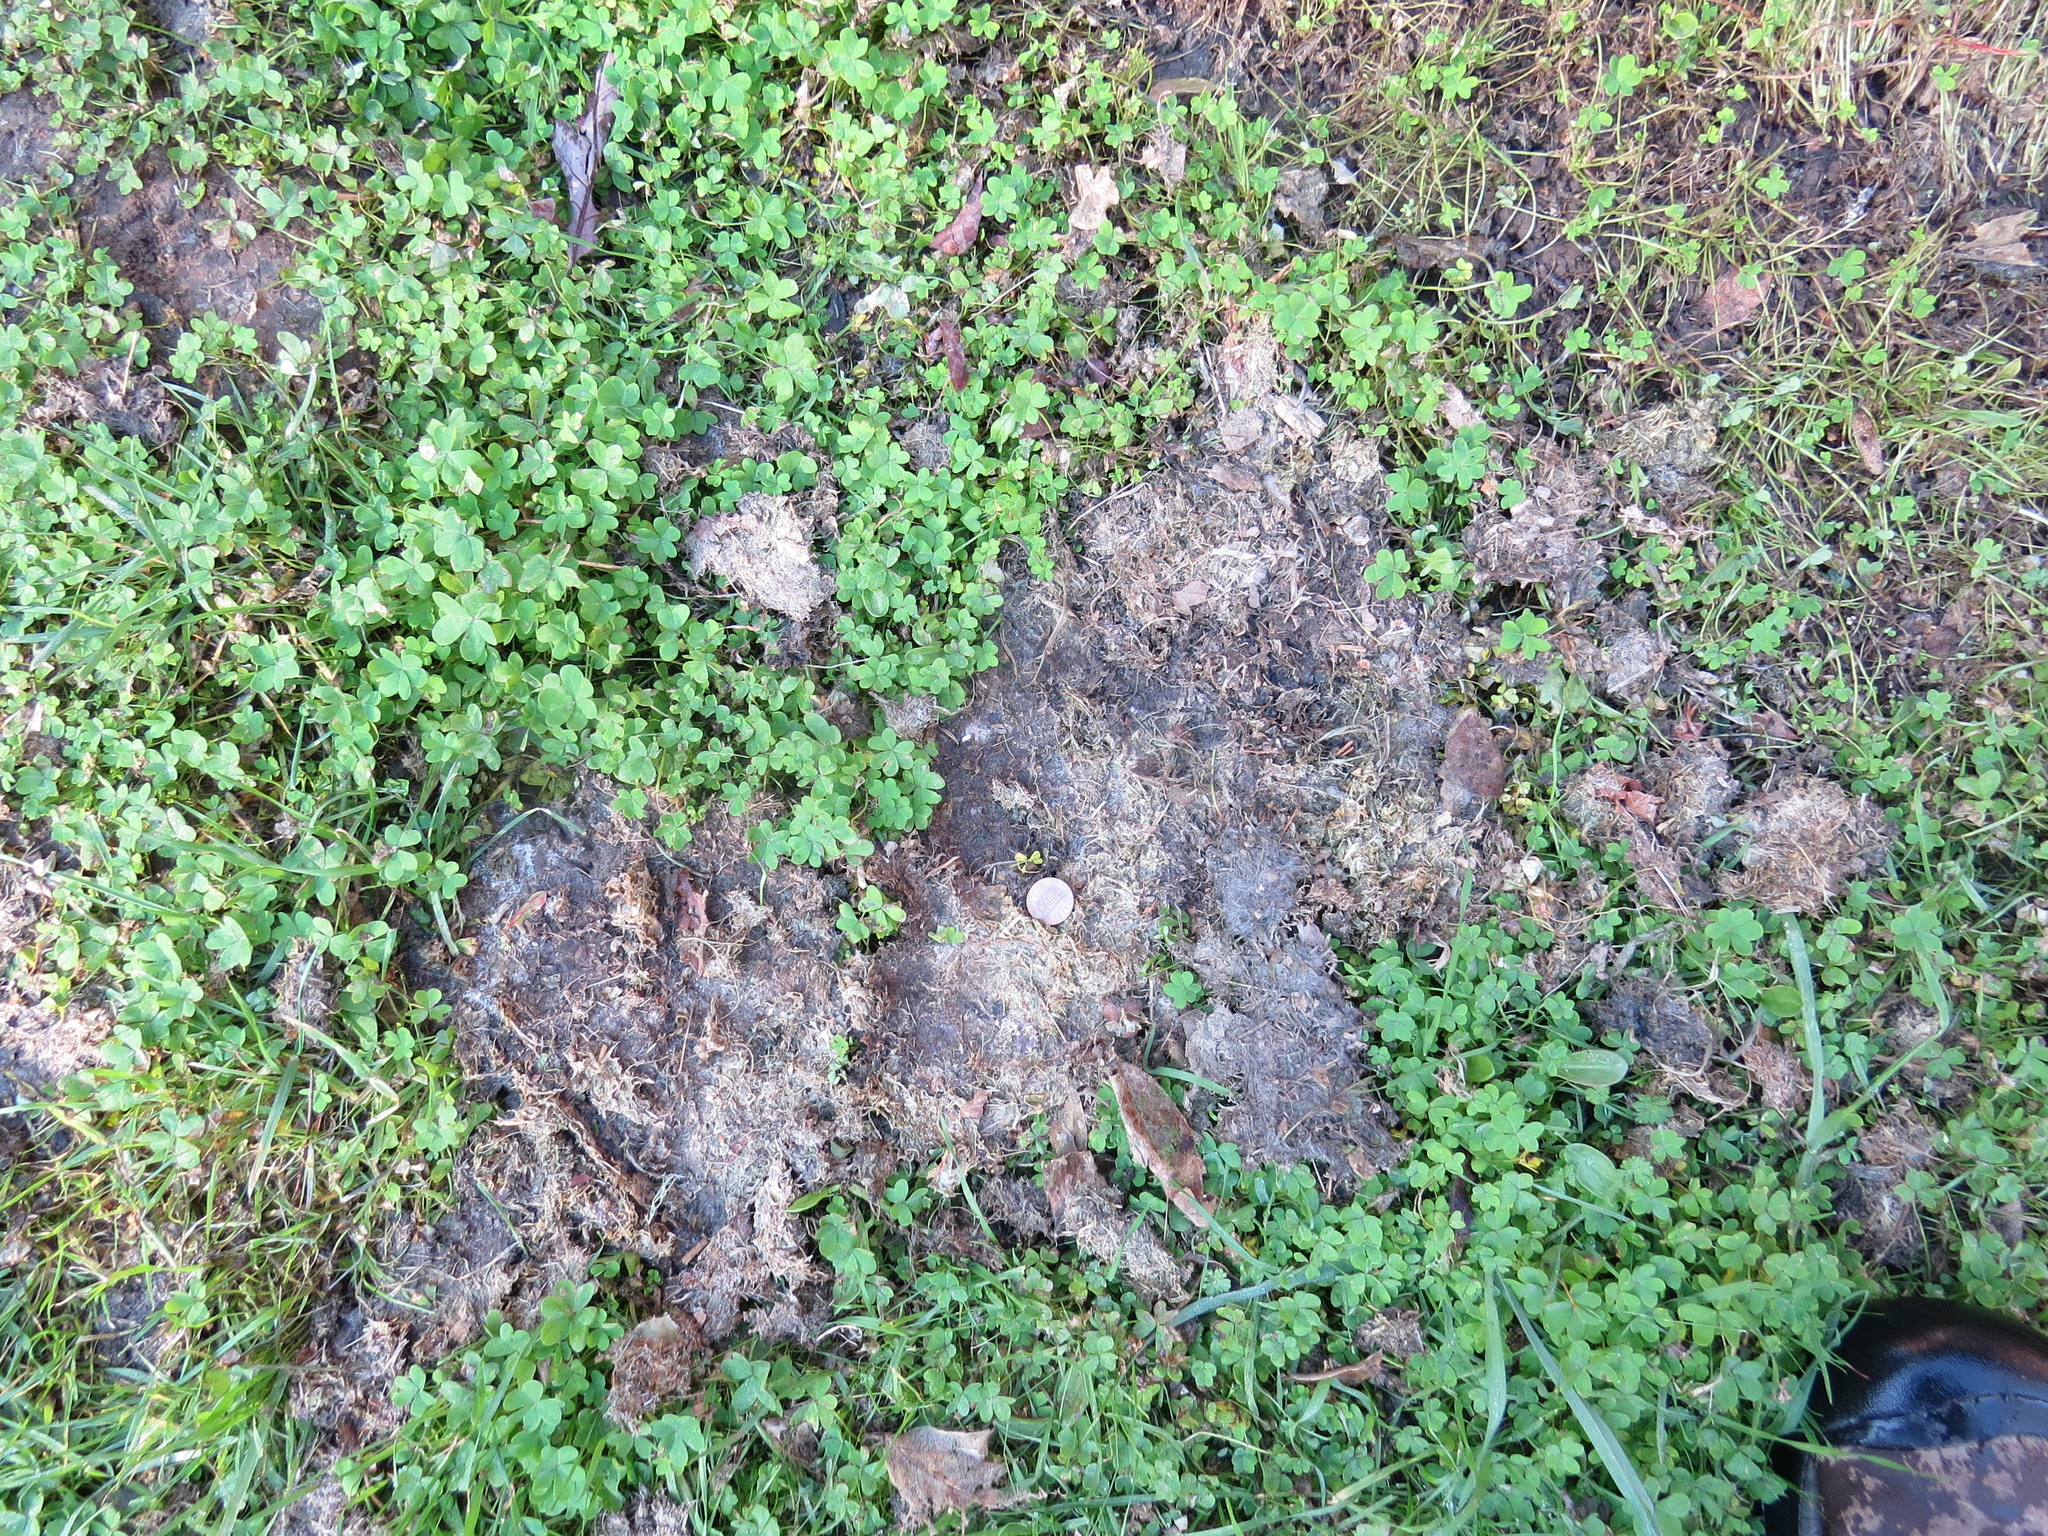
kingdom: Animalia
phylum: Chordata
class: Mammalia
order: Carnivora
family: Felidae
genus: Puma
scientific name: Puma concolor
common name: Puma
